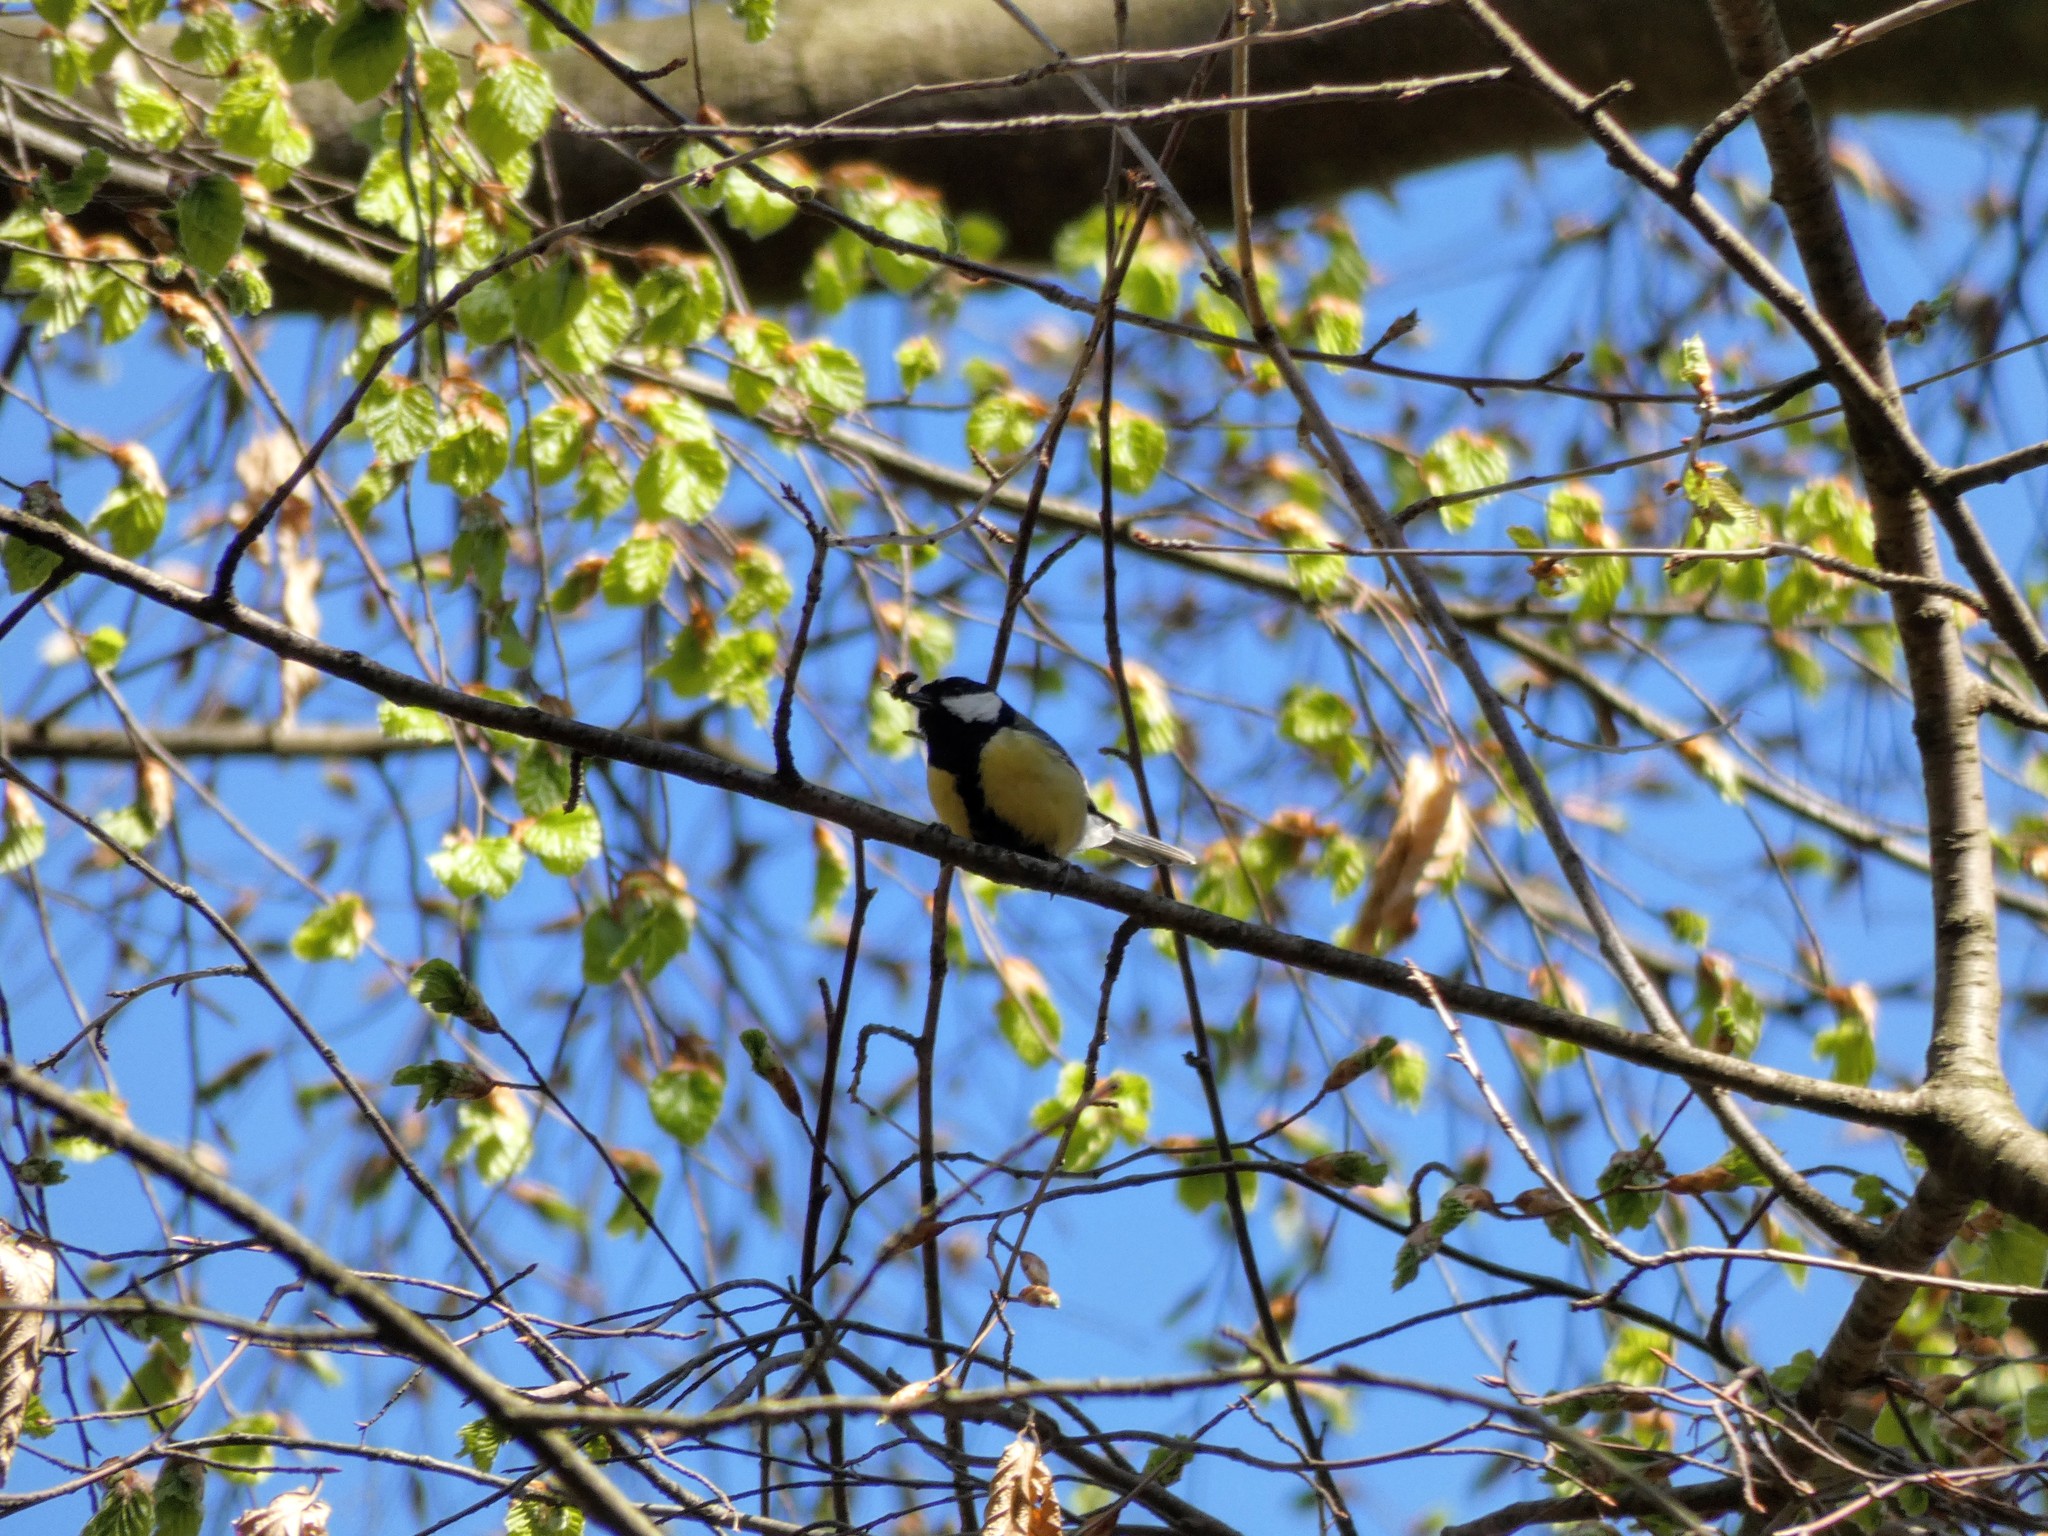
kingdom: Animalia
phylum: Chordata
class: Aves
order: Passeriformes
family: Paridae
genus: Parus
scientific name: Parus major
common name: Great tit
